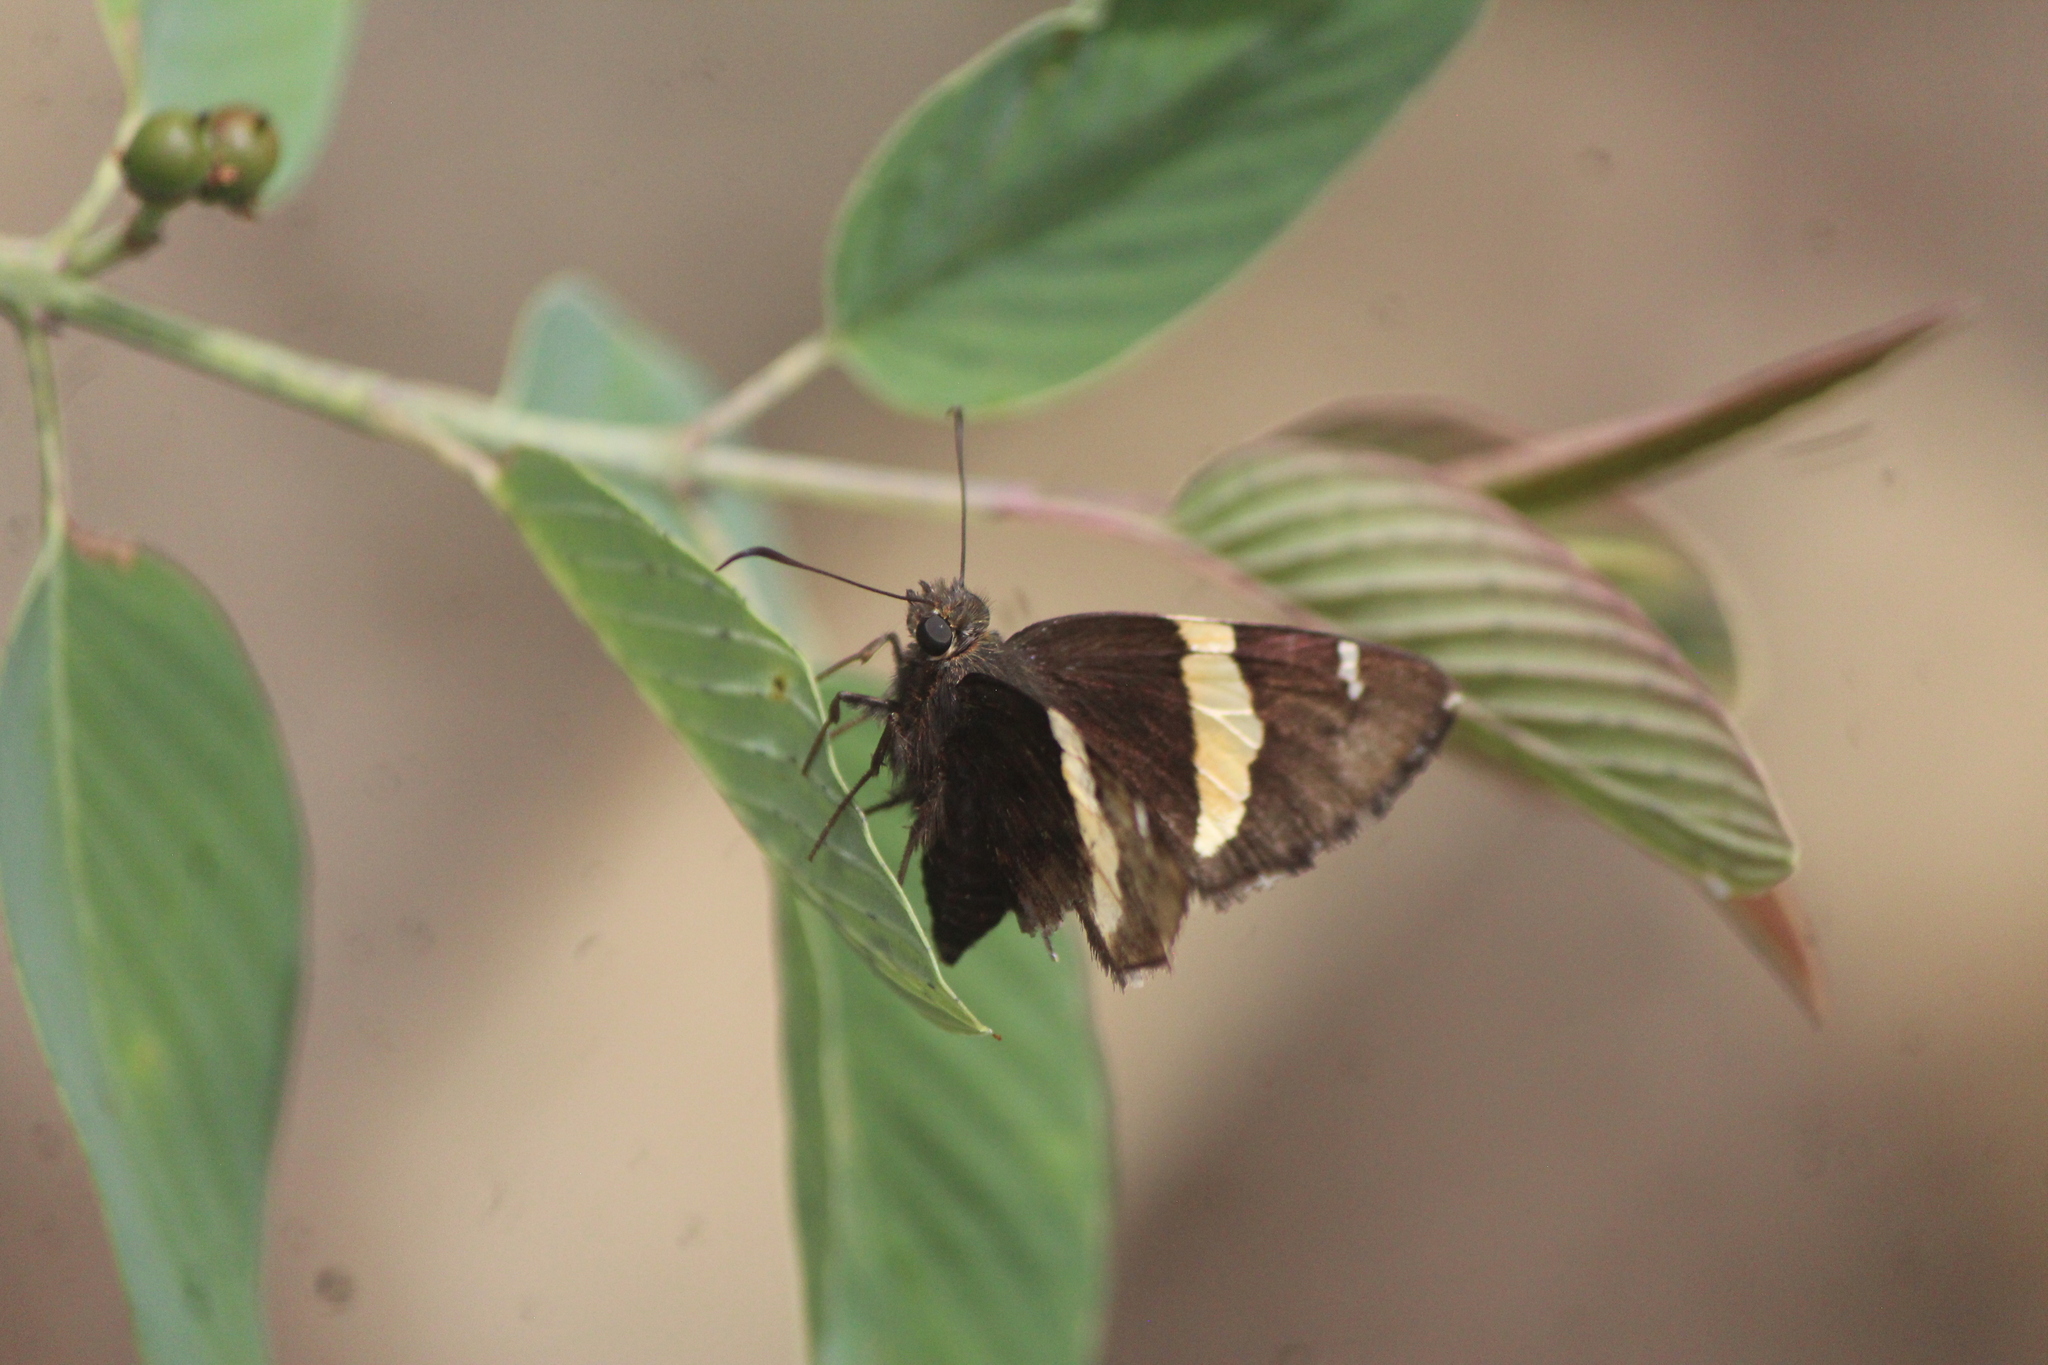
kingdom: Animalia
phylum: Arthropoda
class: Arachnida
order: Scorpiones
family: Bothriuridae
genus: Telegonus
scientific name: Telegonus cellus
